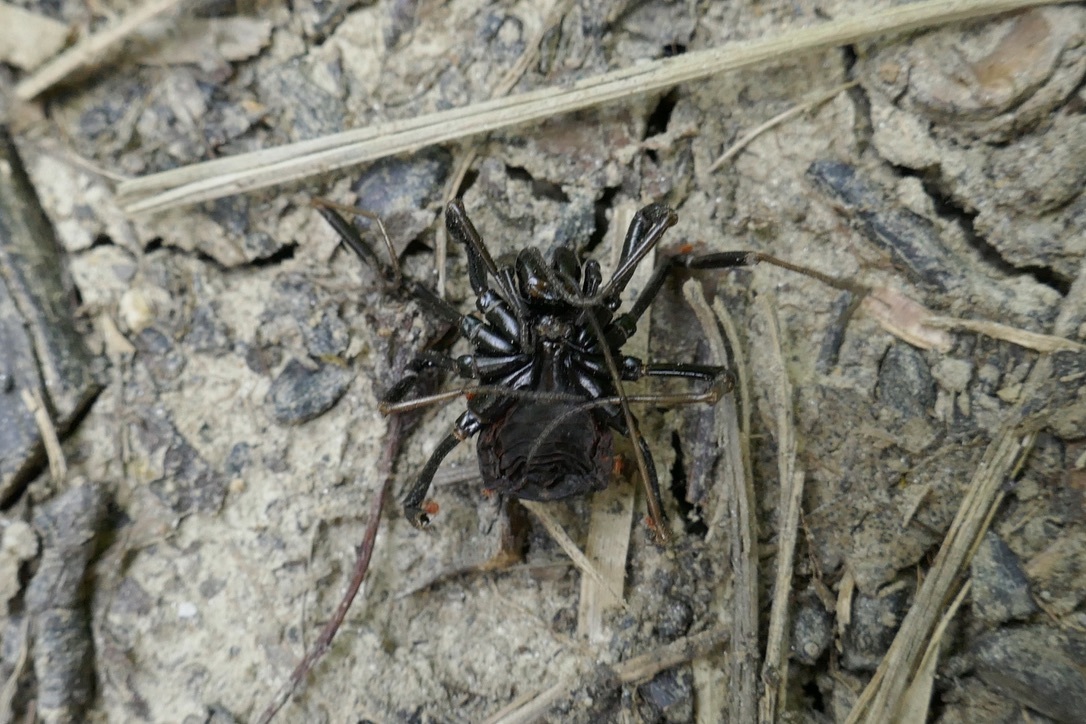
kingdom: Animalia
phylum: Arthropoda
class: Arachnida
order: Opiliones
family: Phalangiidae
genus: Egaenus
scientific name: Egaenus convexus
